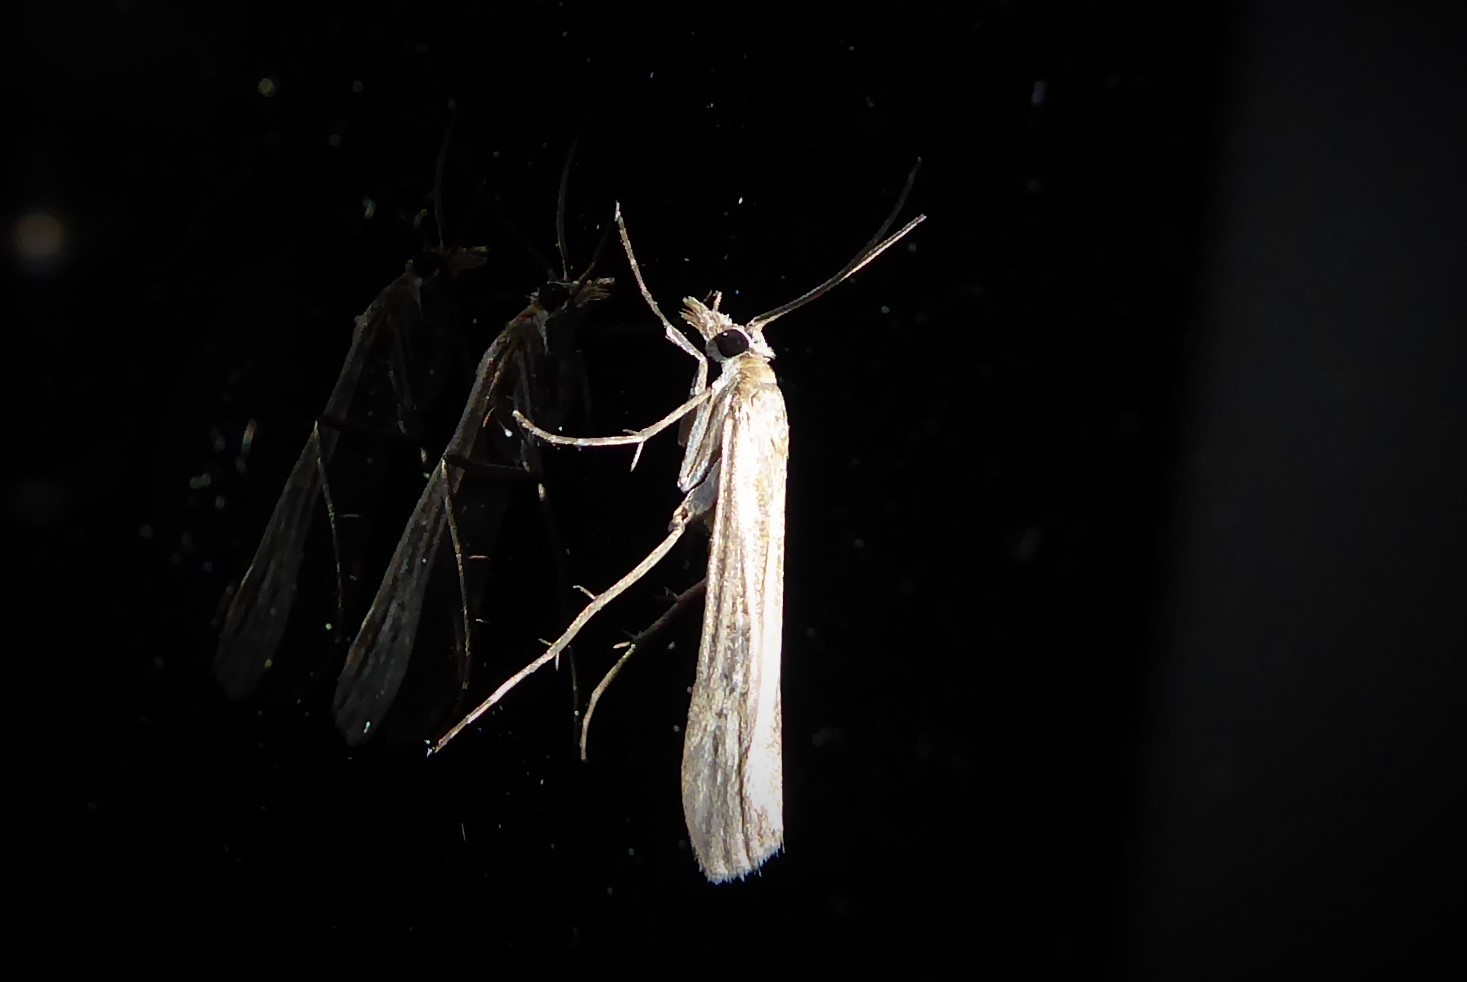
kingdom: Animalia
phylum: Arthropoda
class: Insecta
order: Lepidoptera
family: Crambidae
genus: Eudonia
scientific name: Eudonia leptalea
